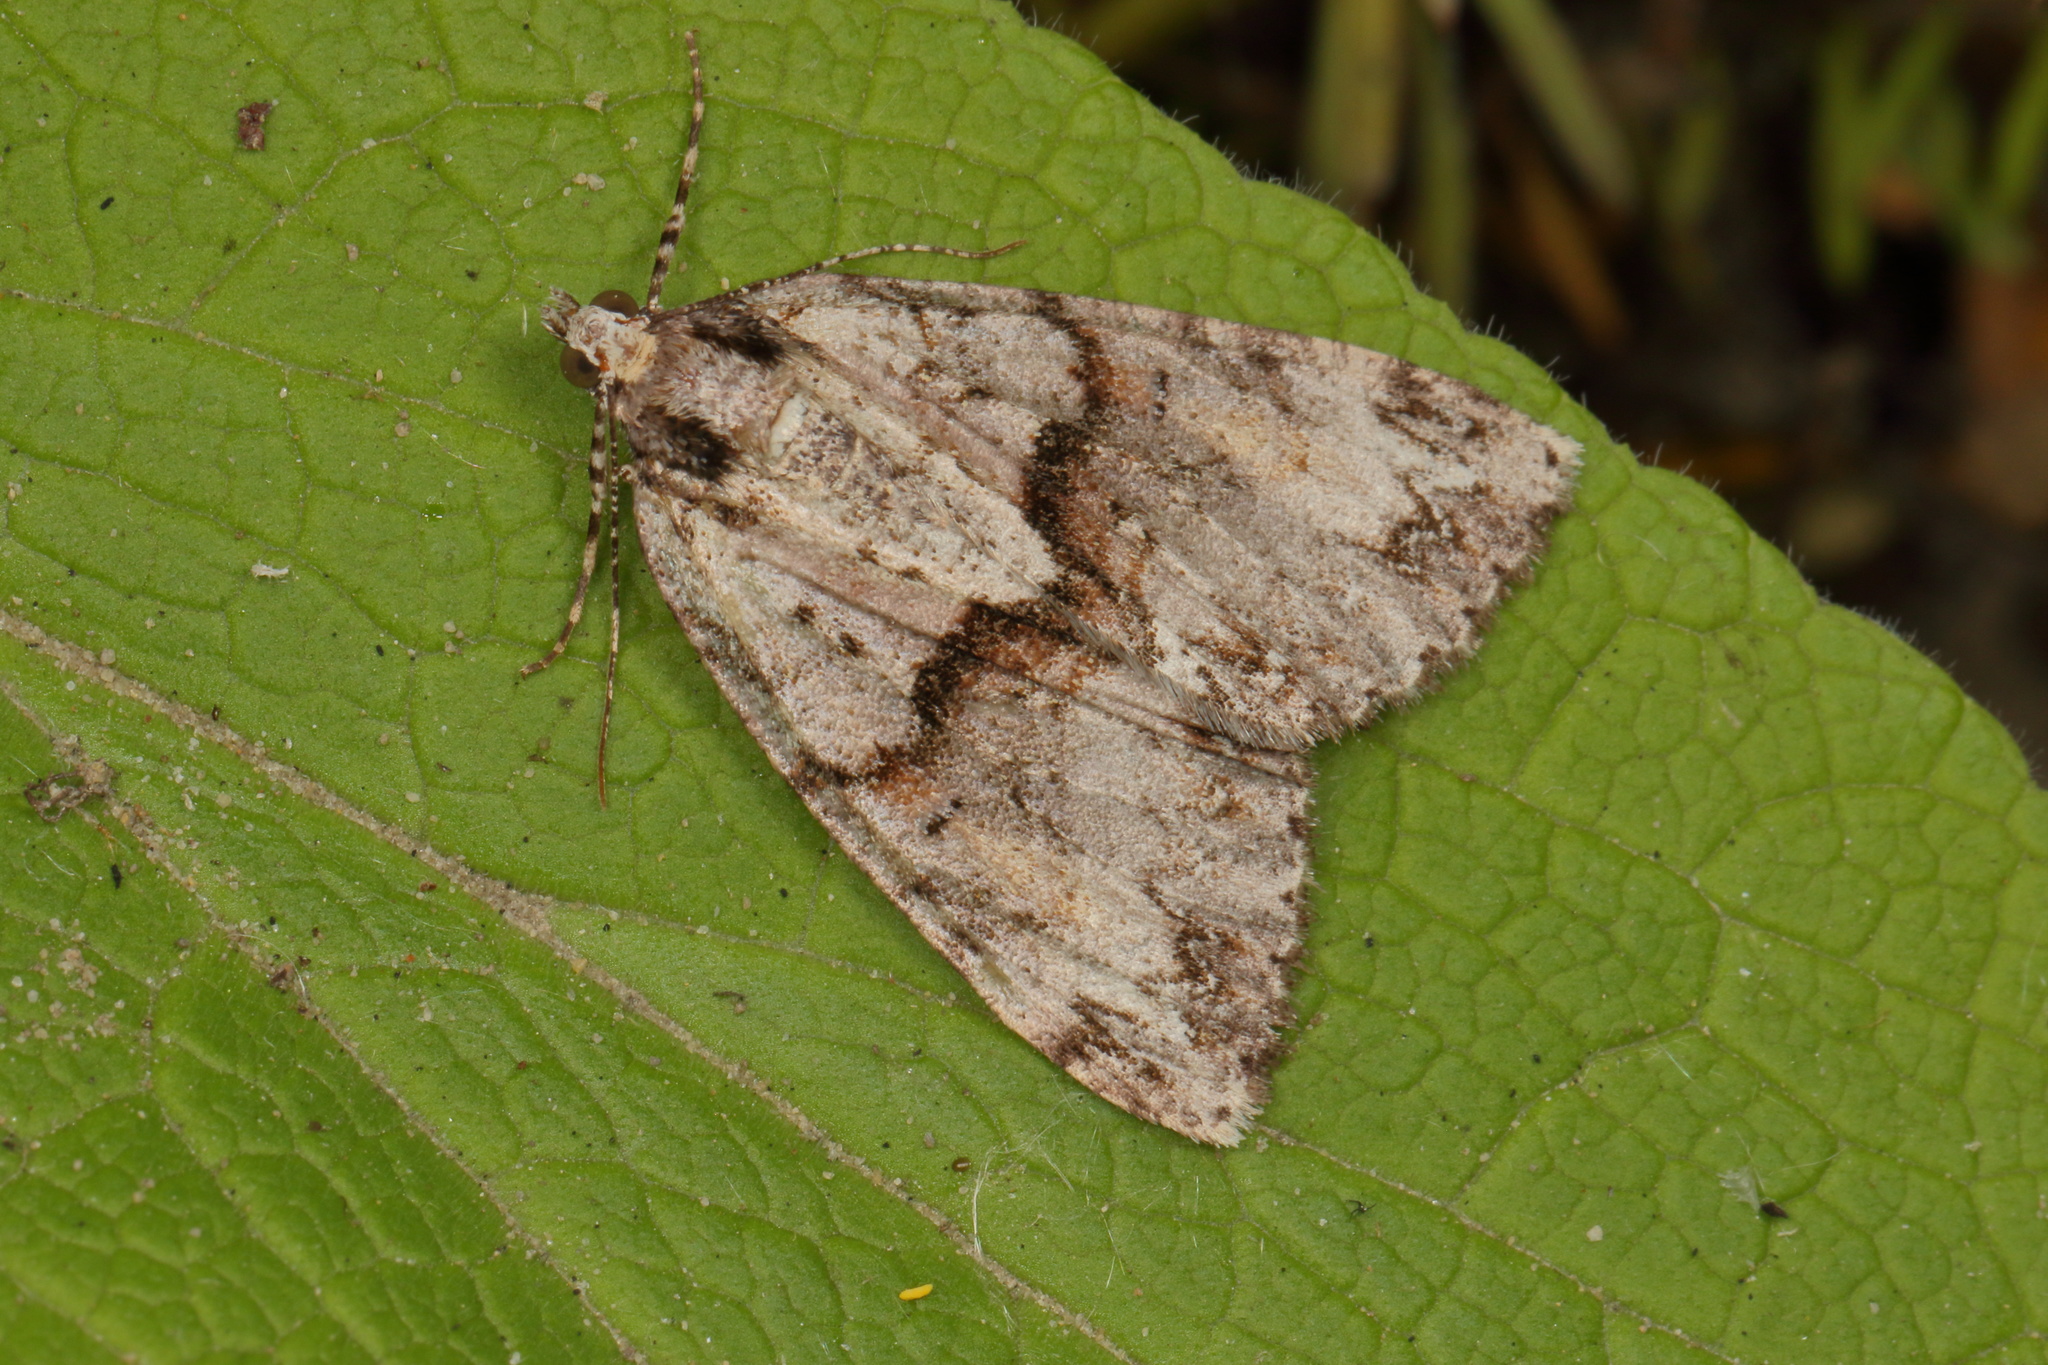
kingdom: Animalia
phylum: Arthropoda
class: Insecta
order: Lepidoptera
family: Geometridae
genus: Pseudocoremia
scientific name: Pseudocoremia suavis
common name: Common forest looper
